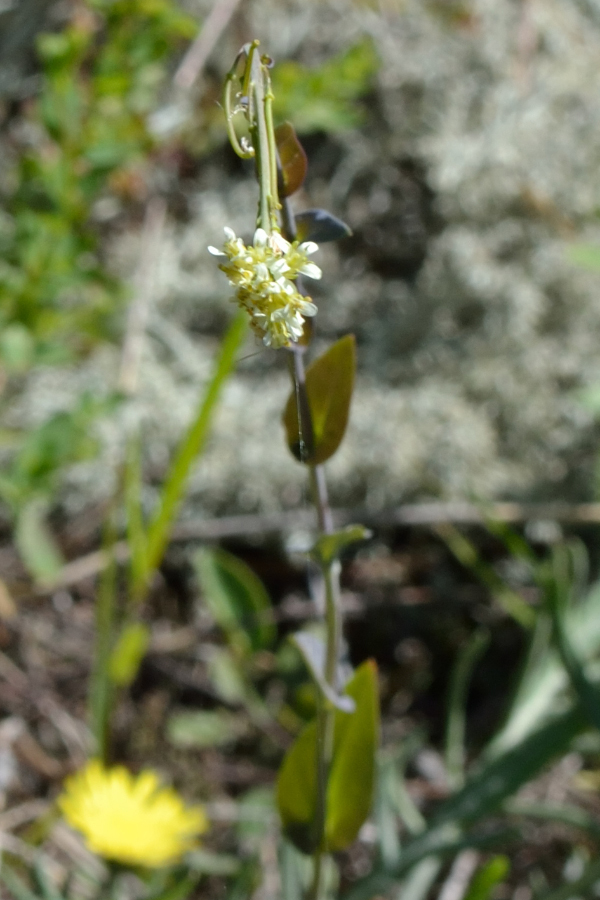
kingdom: Plantae
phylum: Tracheophyta
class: Magnoliopsida
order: Brassicales
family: Brassicaceae
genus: Turritis
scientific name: Turritis glabra
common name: Tower rockcress
